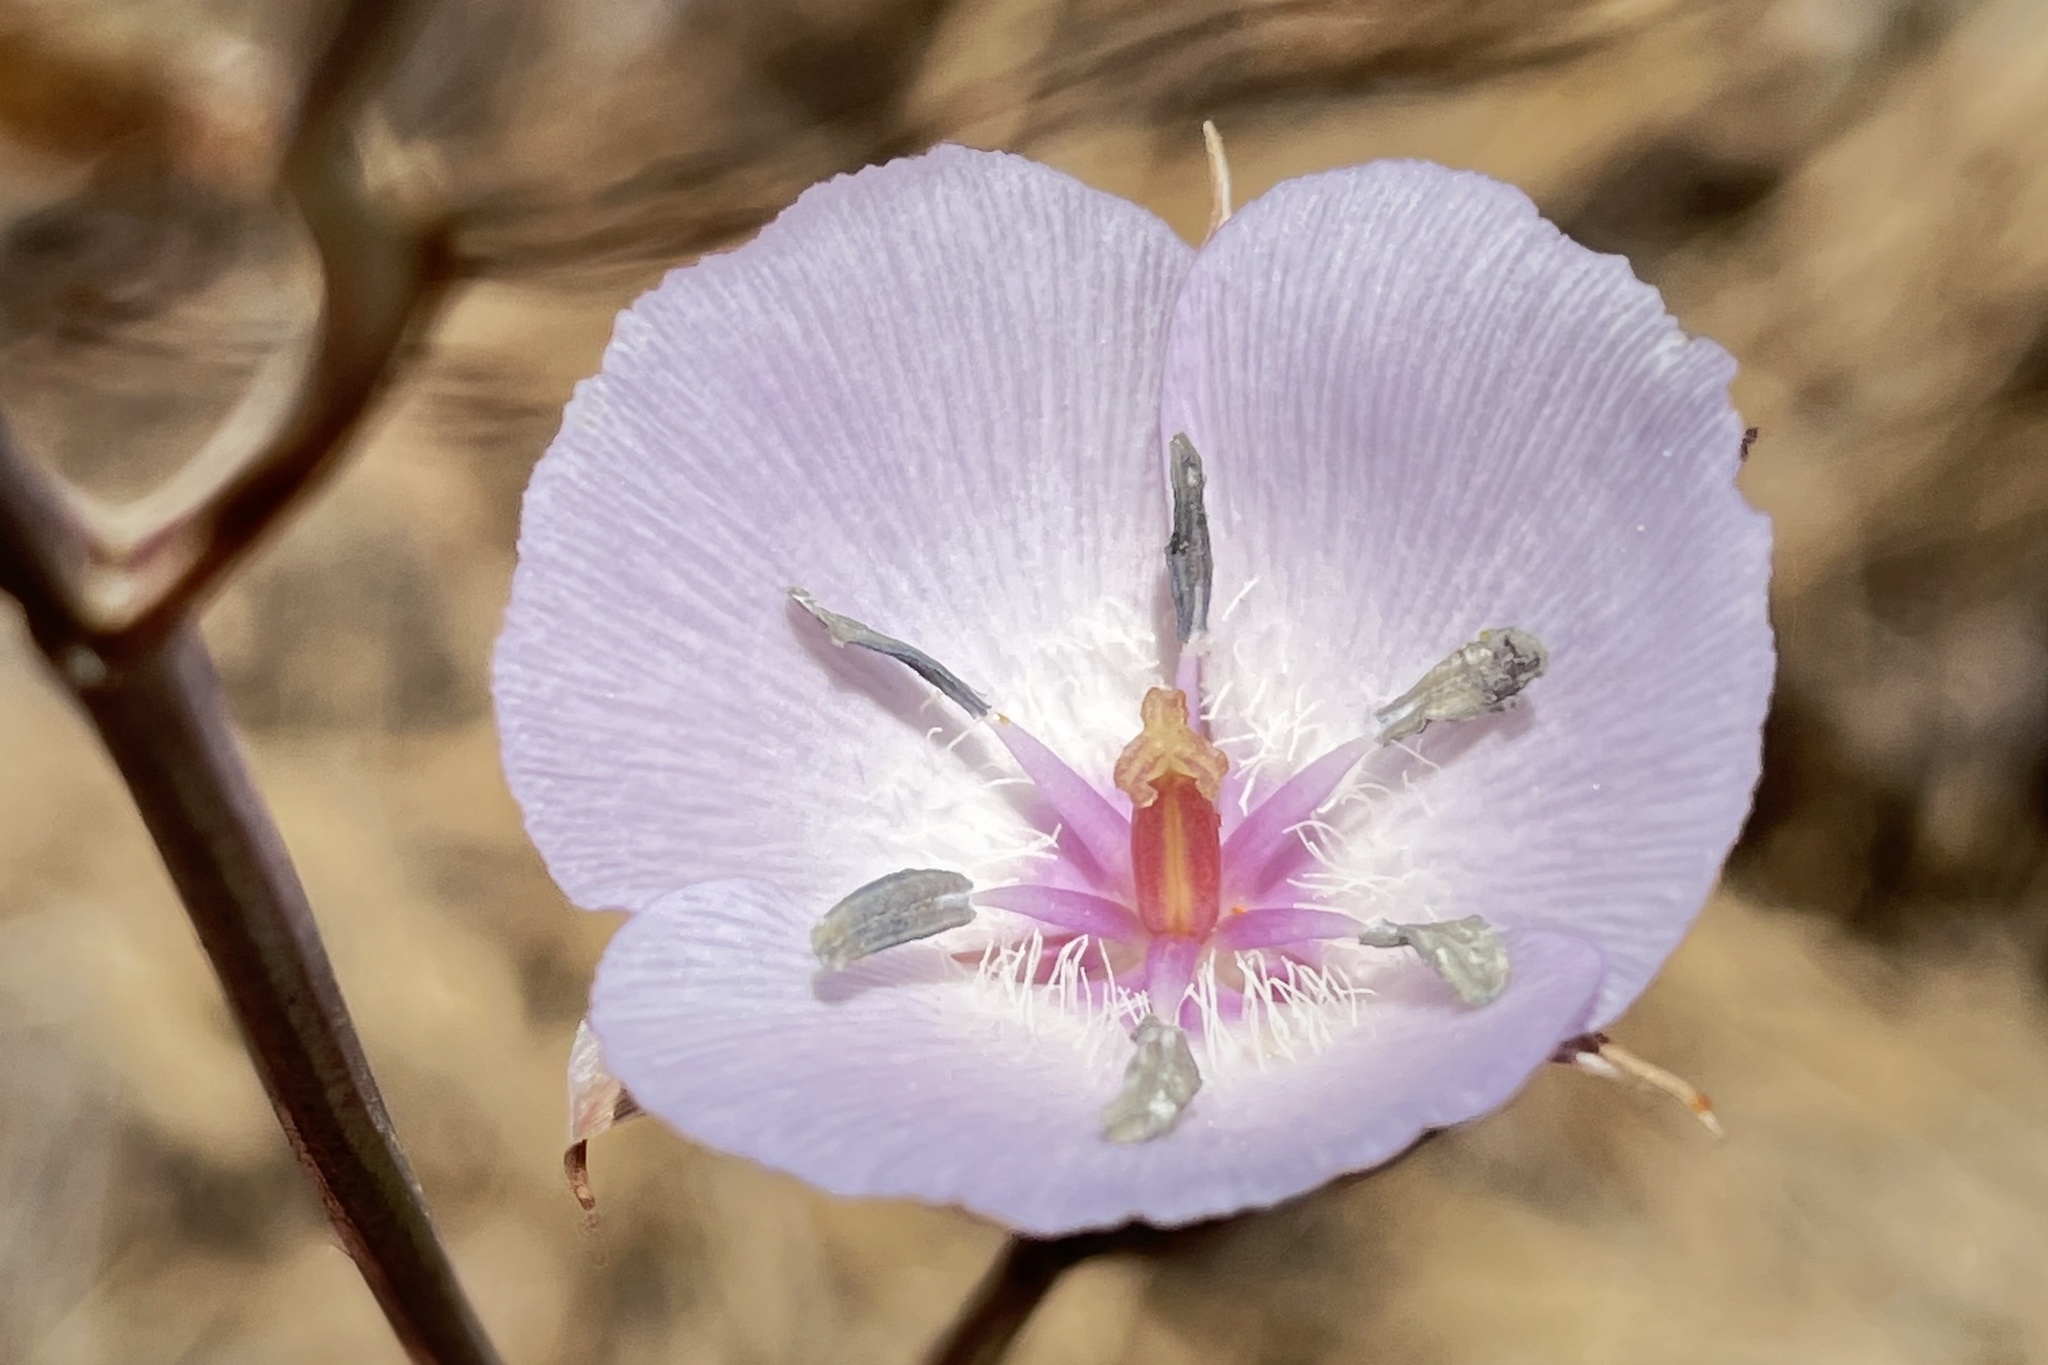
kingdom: Plantae
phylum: Tracheophyta
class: Liliopsida
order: Liliales
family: Liliaceae
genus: Calochortus
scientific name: Calochortus splendens
